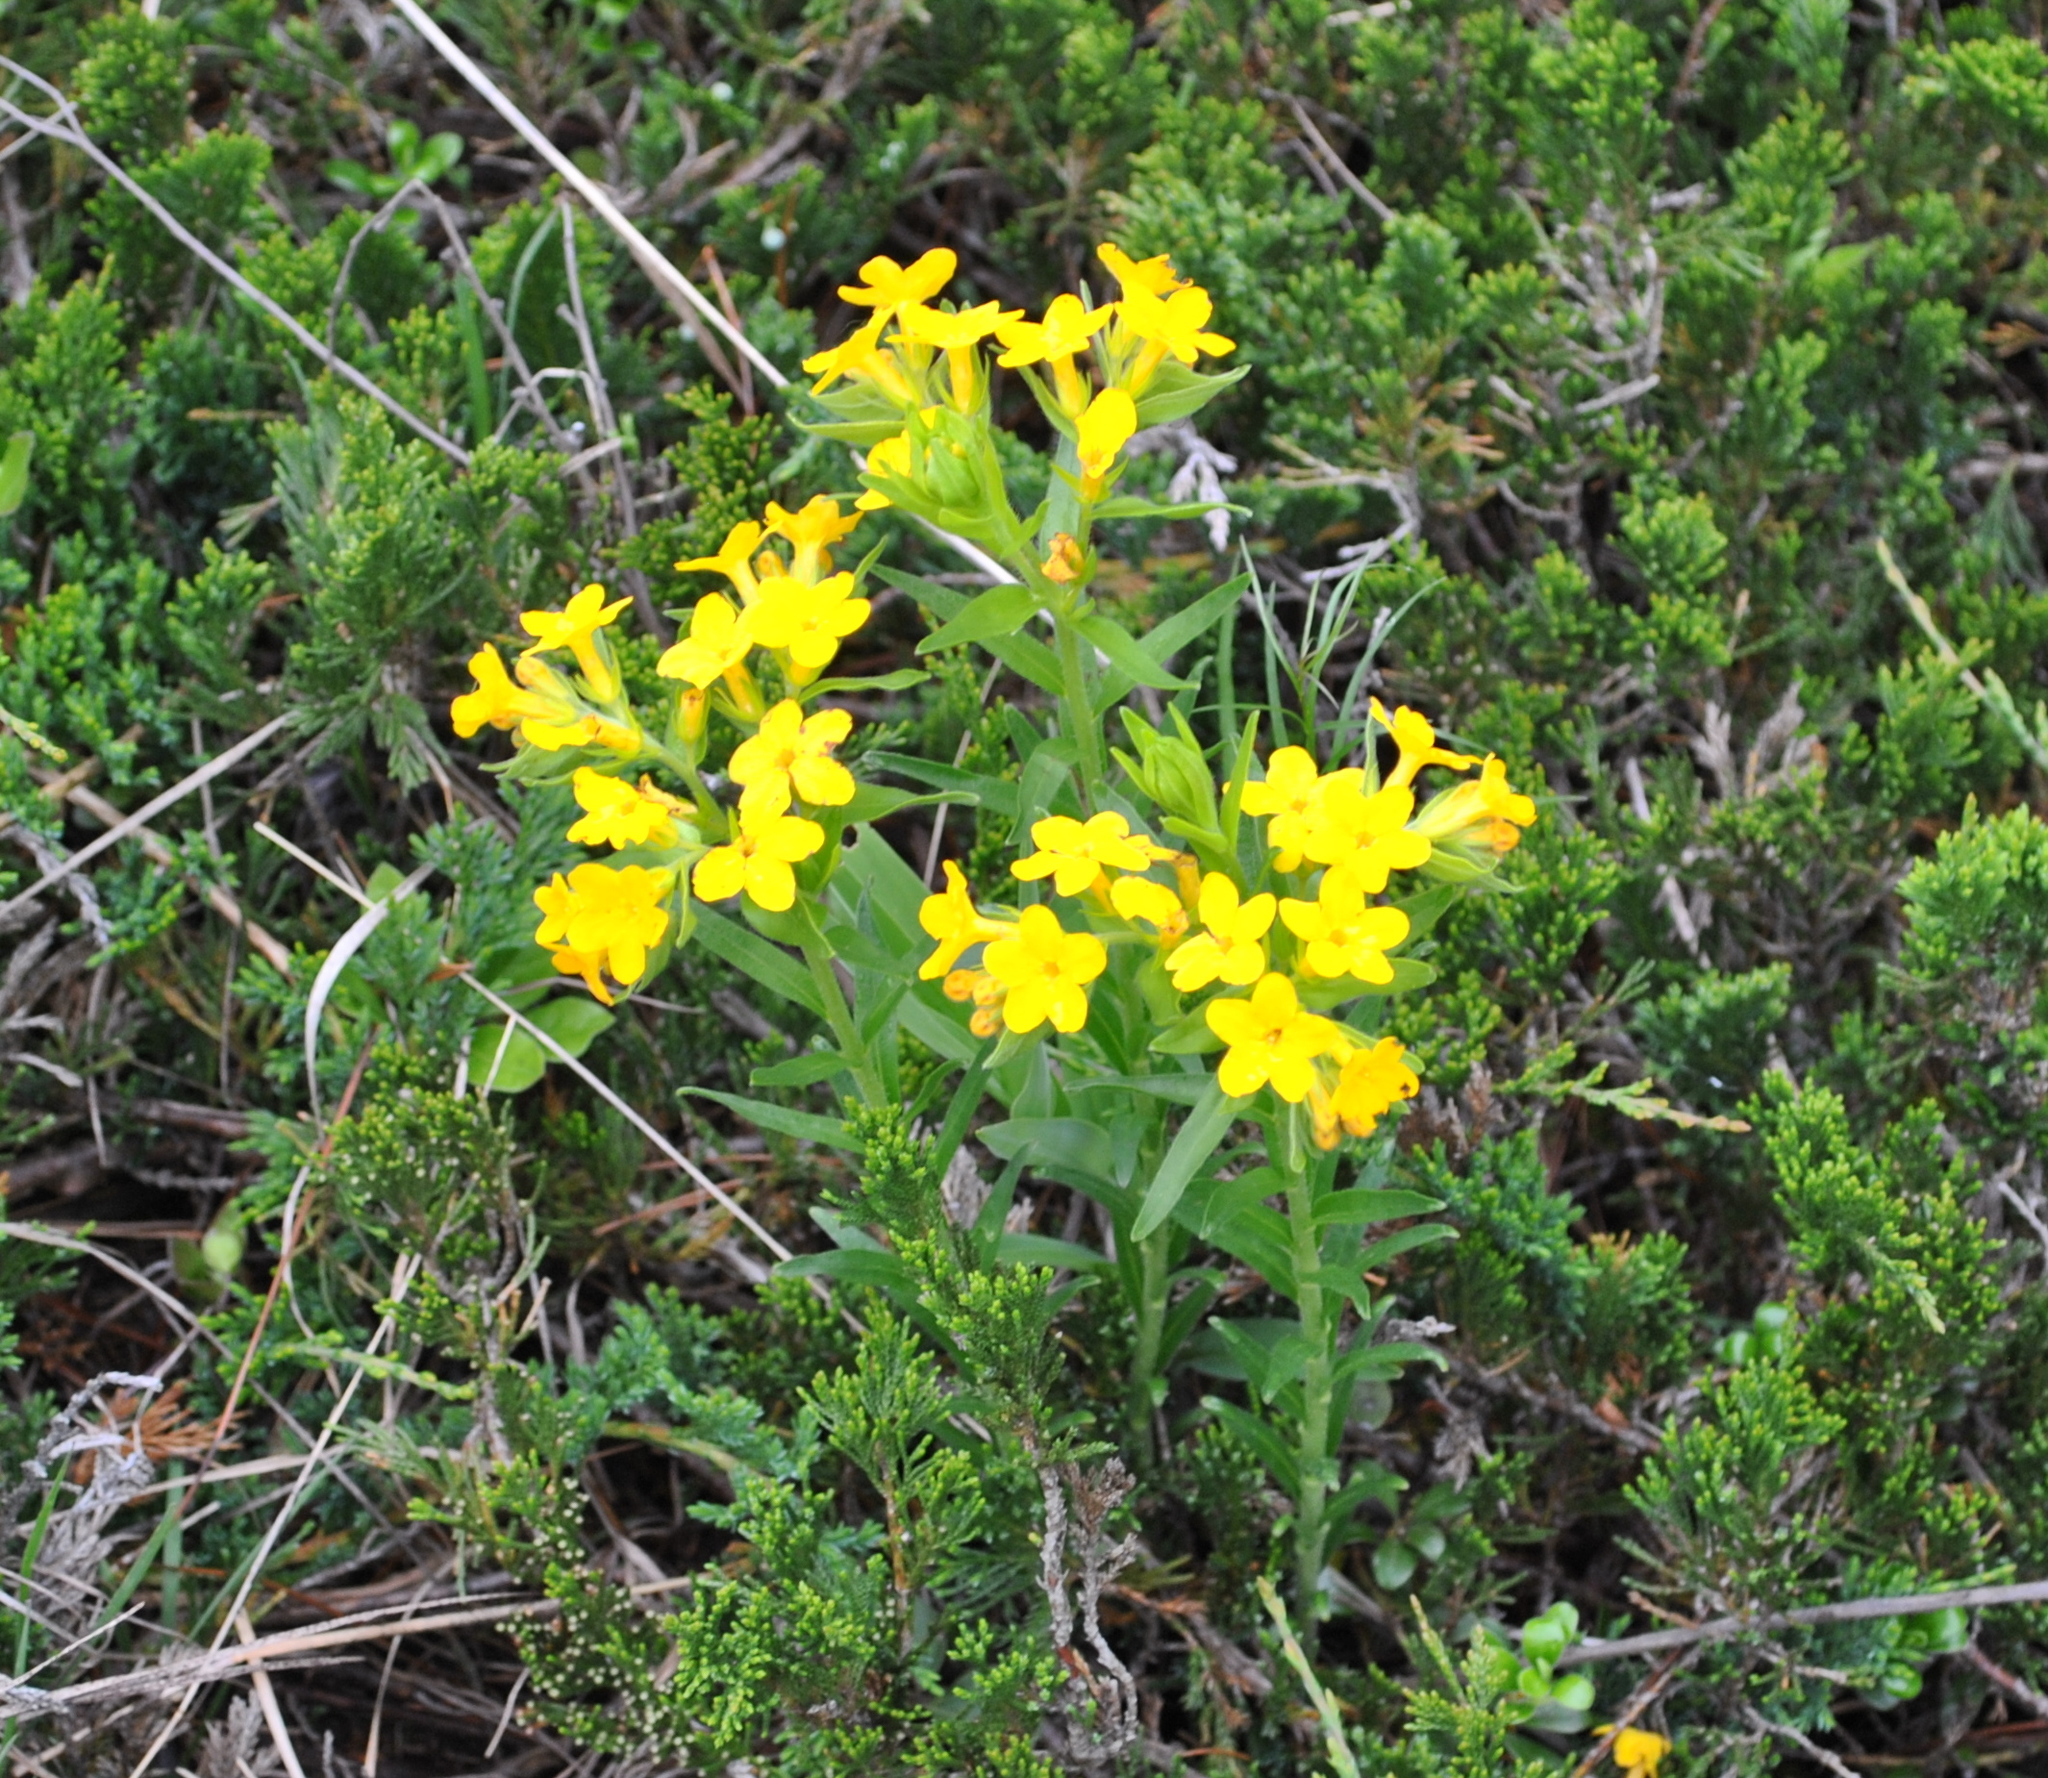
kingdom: Plantae
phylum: Tracheophyta
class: Magnoliopsida
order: Boraginales
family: Boraginaceae
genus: Lithospermum
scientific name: Lithospermum caroliniense
